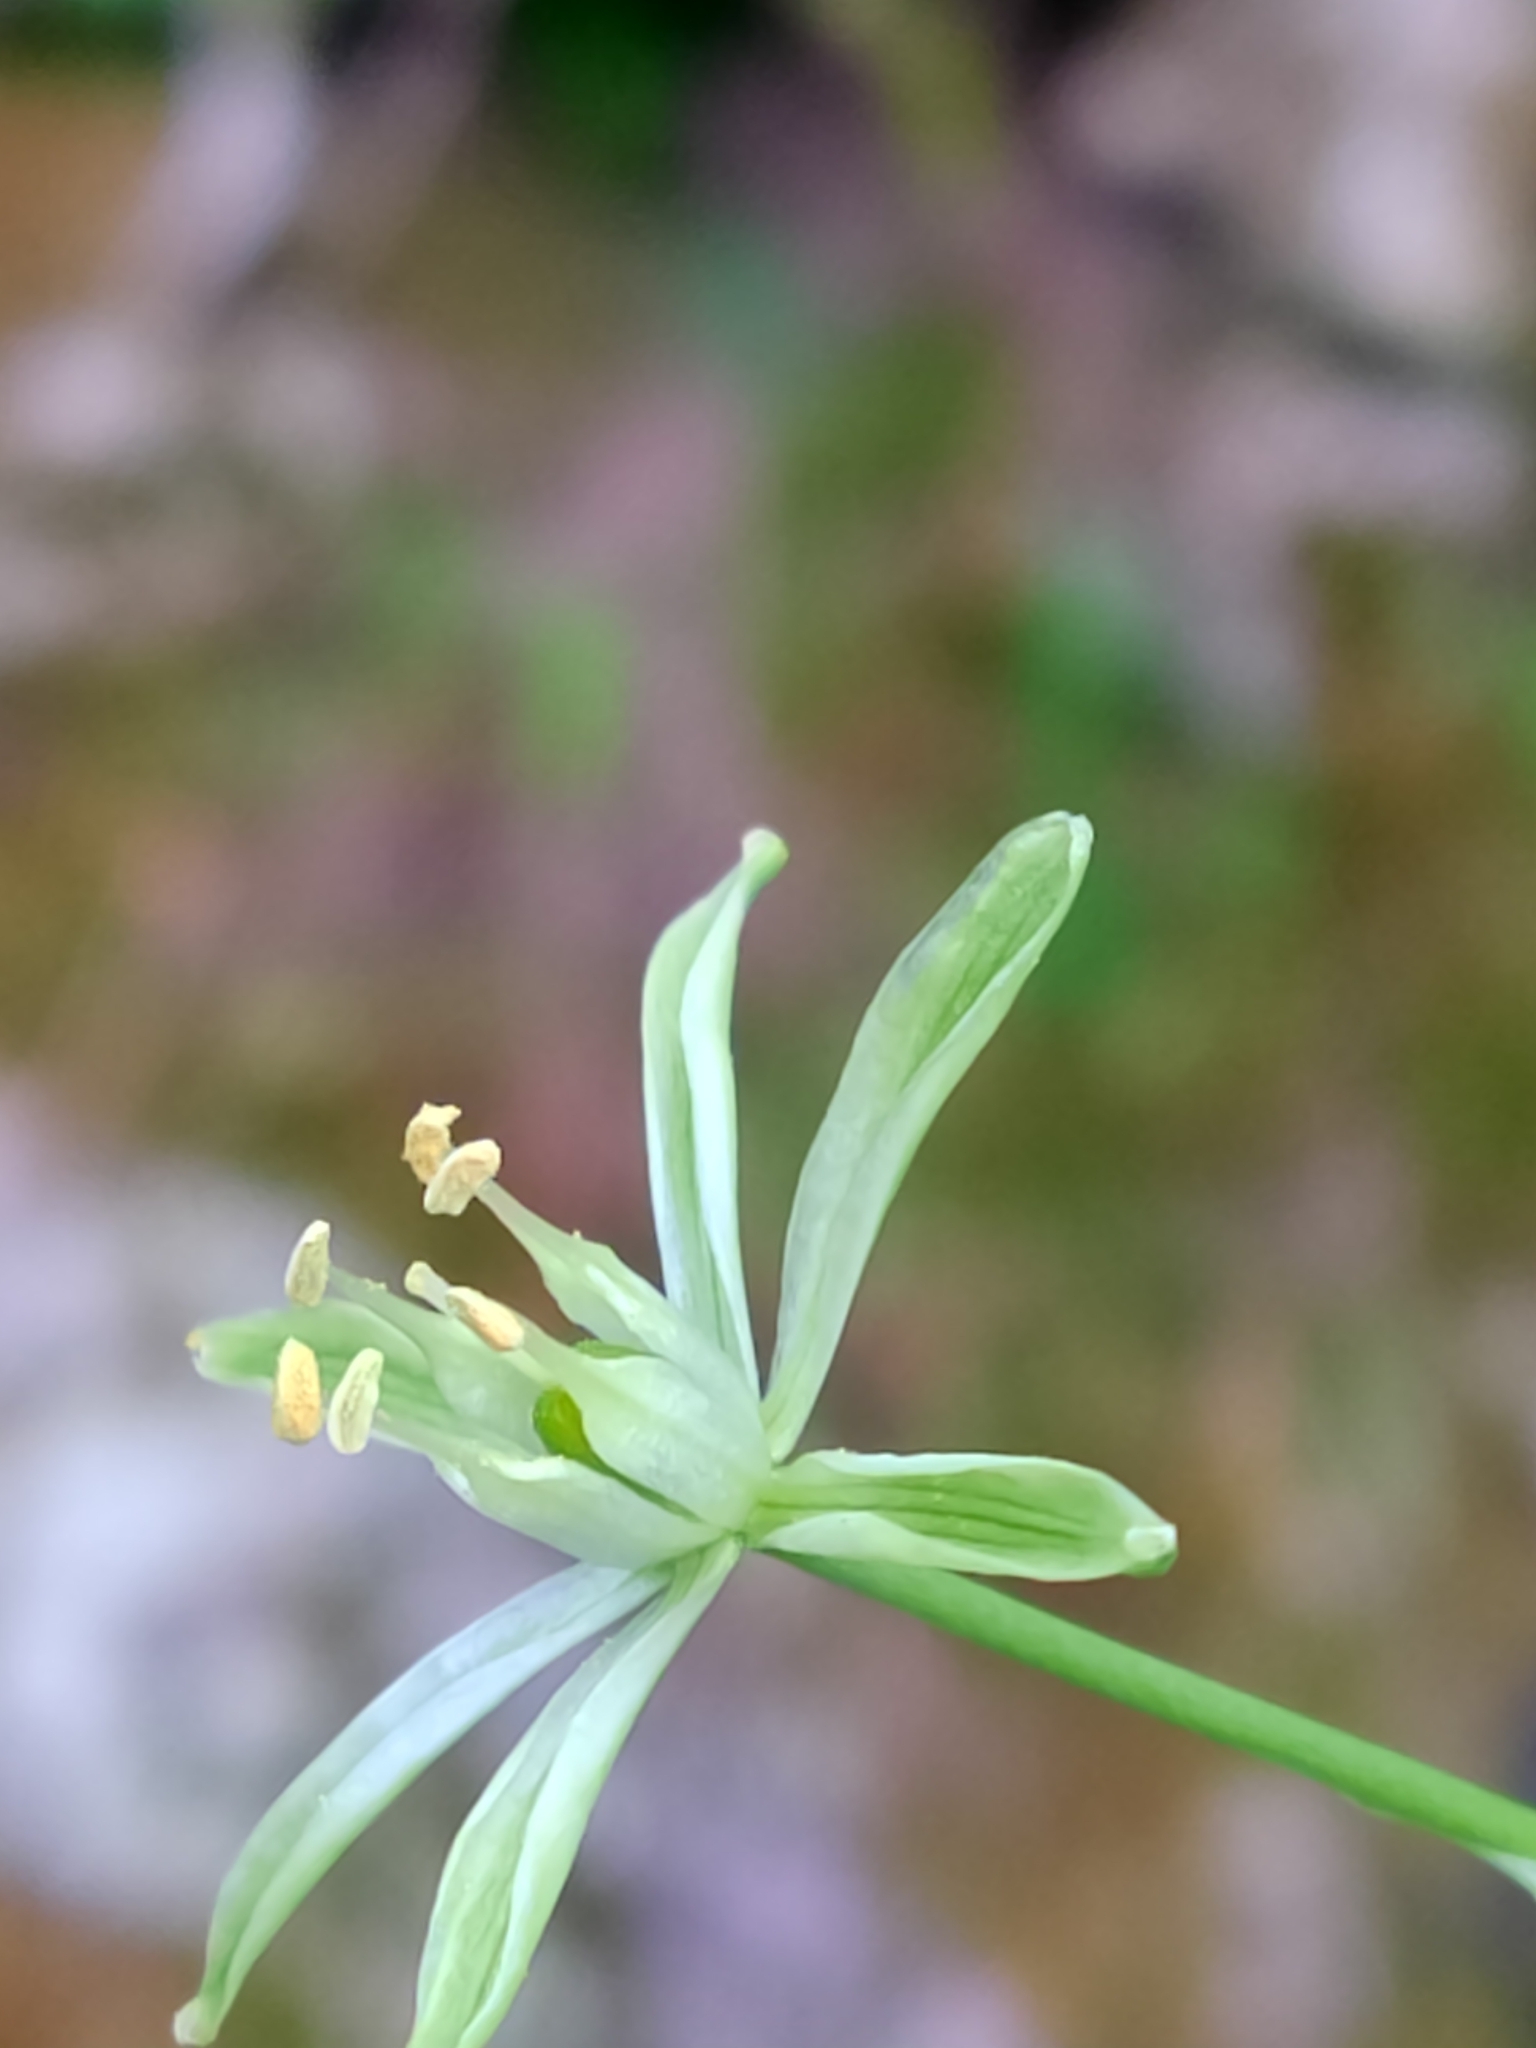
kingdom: Plantae
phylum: Tracheophyta
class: Liliopsida
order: Asparagales
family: Asparagaceae
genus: Ornithogalum
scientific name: Ornithogalum pyrenaicum
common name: Spiked star-of-bethlehem
